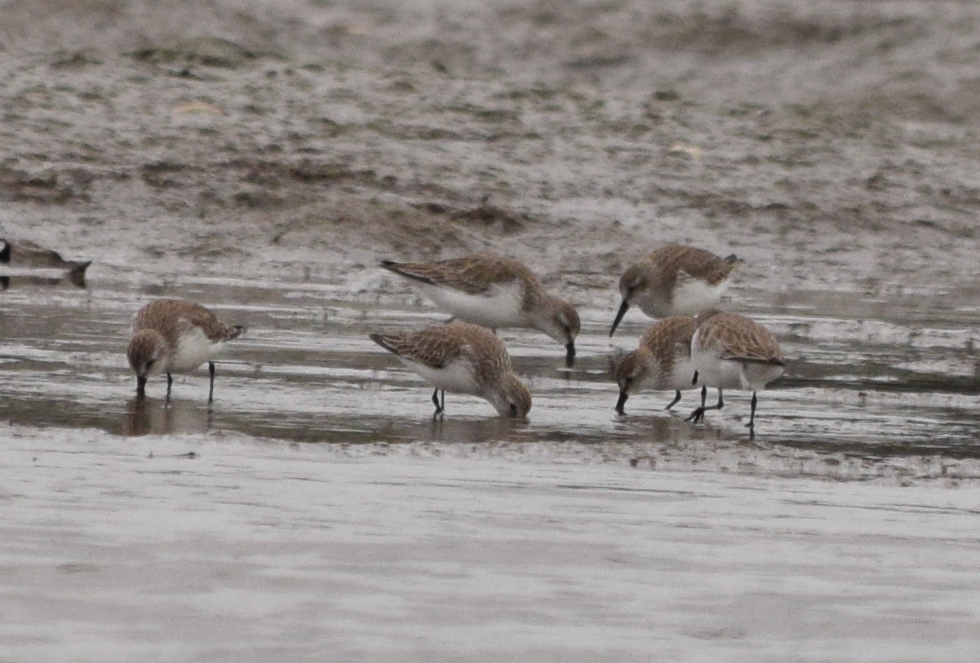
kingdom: Animalia
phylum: Chordata
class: Aves
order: Charadriiformes
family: Scolopacidae
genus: Calidris
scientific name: Calidris mauri
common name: Western sandpiper
